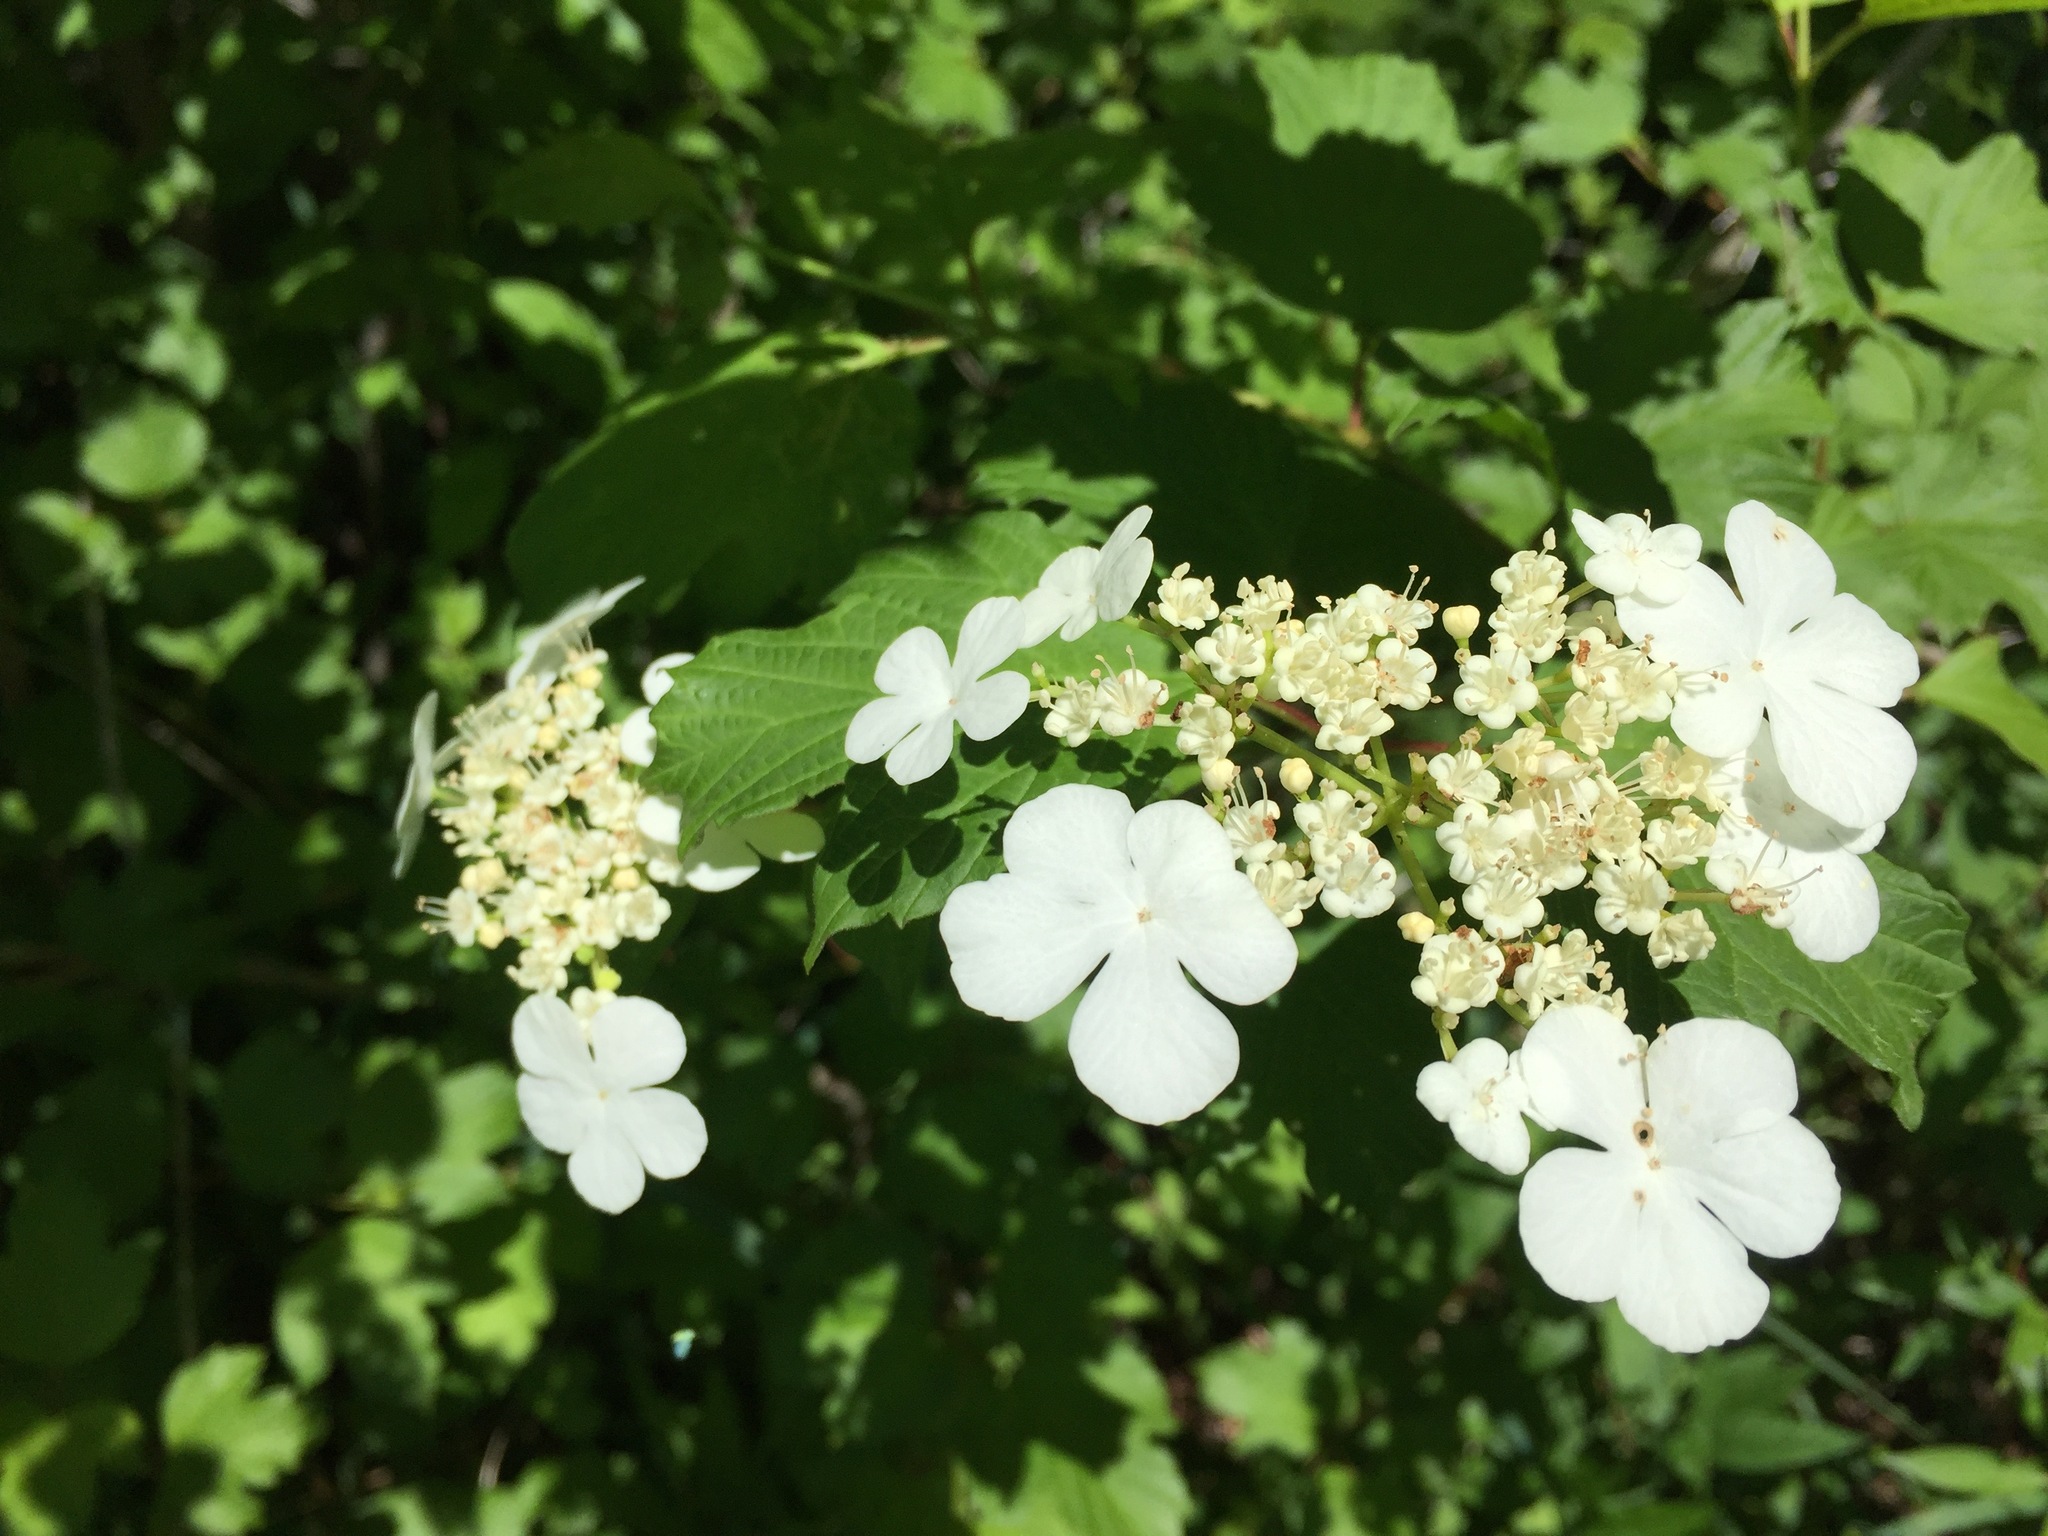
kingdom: Plantae
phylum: Tracheophyta
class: Magnoliopsida
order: Dipsacales
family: Viburnaceae
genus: Viburnum
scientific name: Viburnum opulus
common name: Guelder-rose
